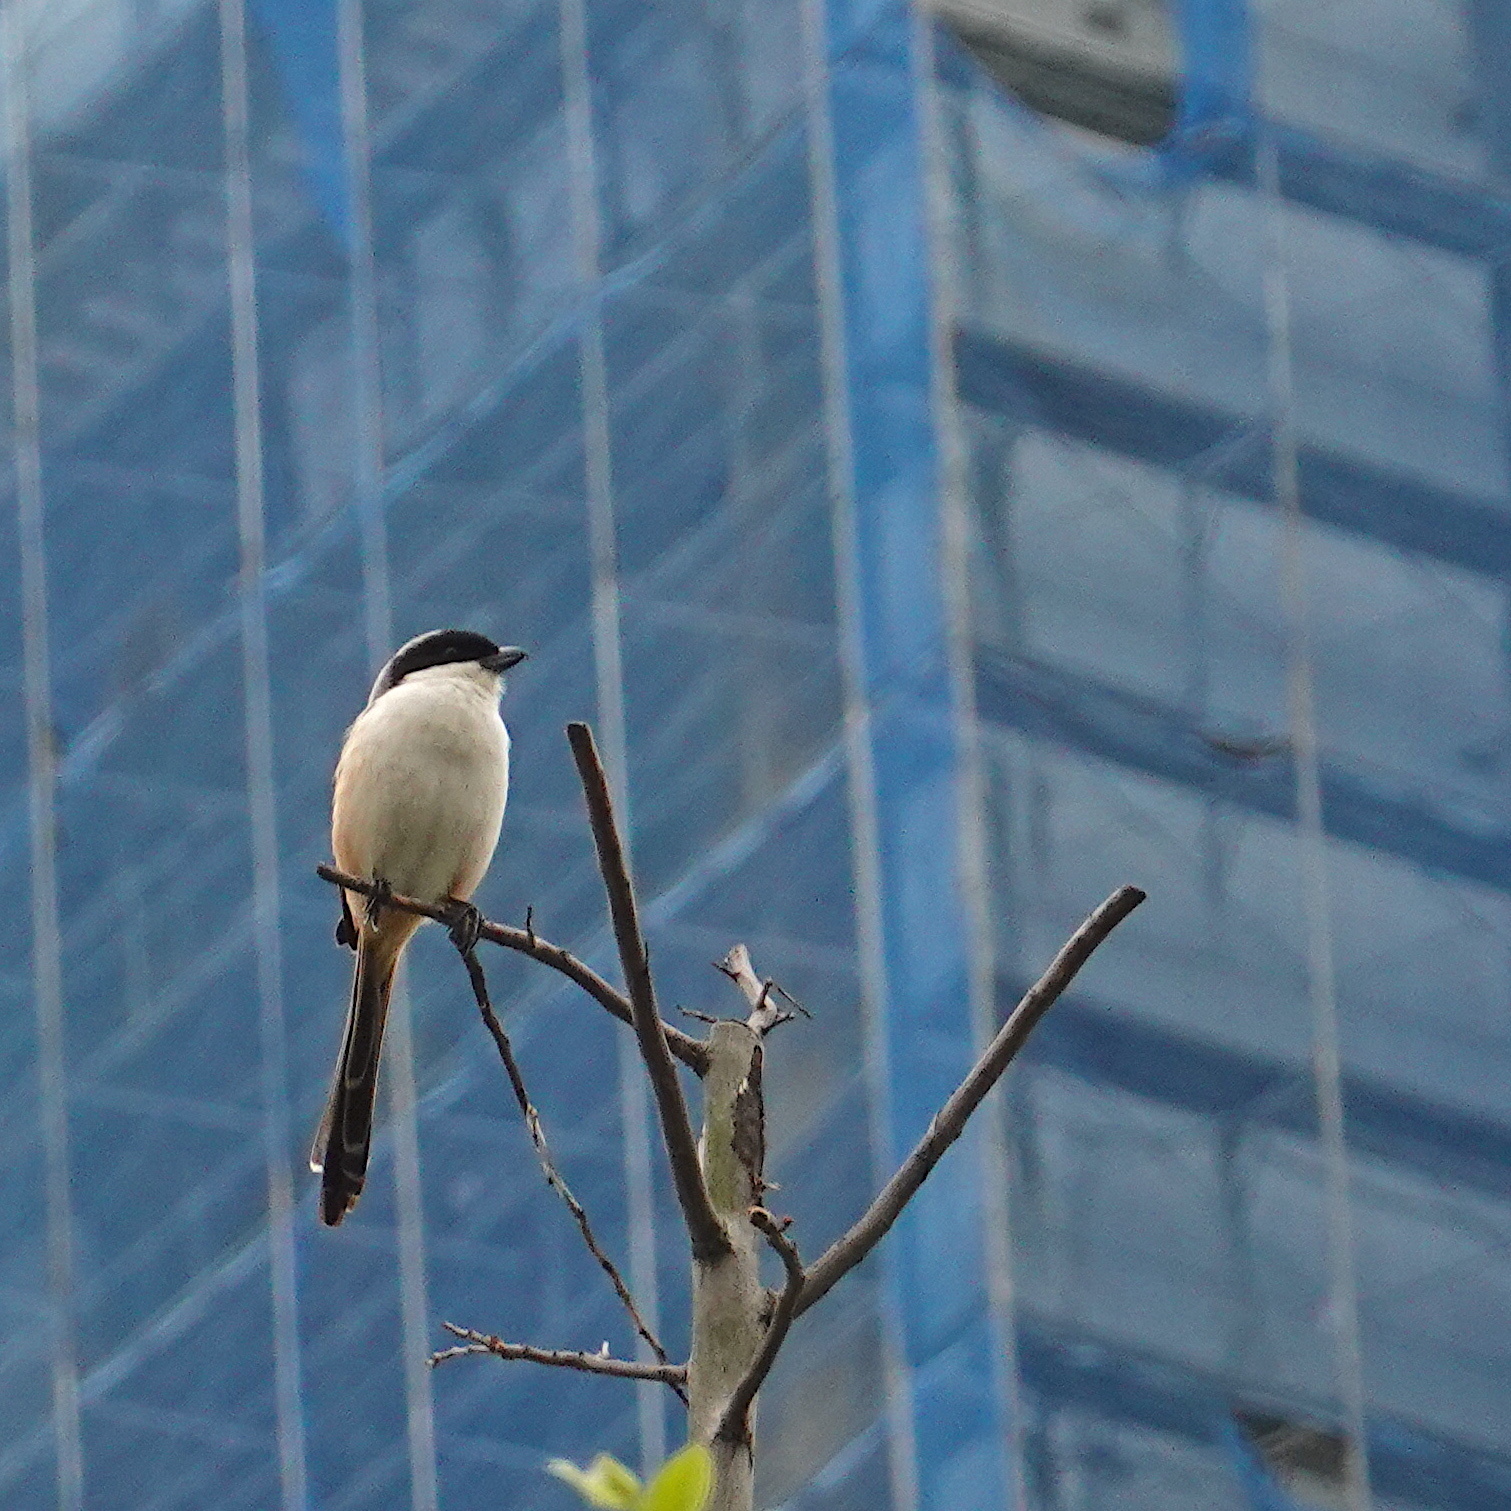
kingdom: Animalia
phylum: Chordata
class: Aves
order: Passeriformes
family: Laniidae
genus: Lanius
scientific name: Lanius schach
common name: Long-tailed shrike
